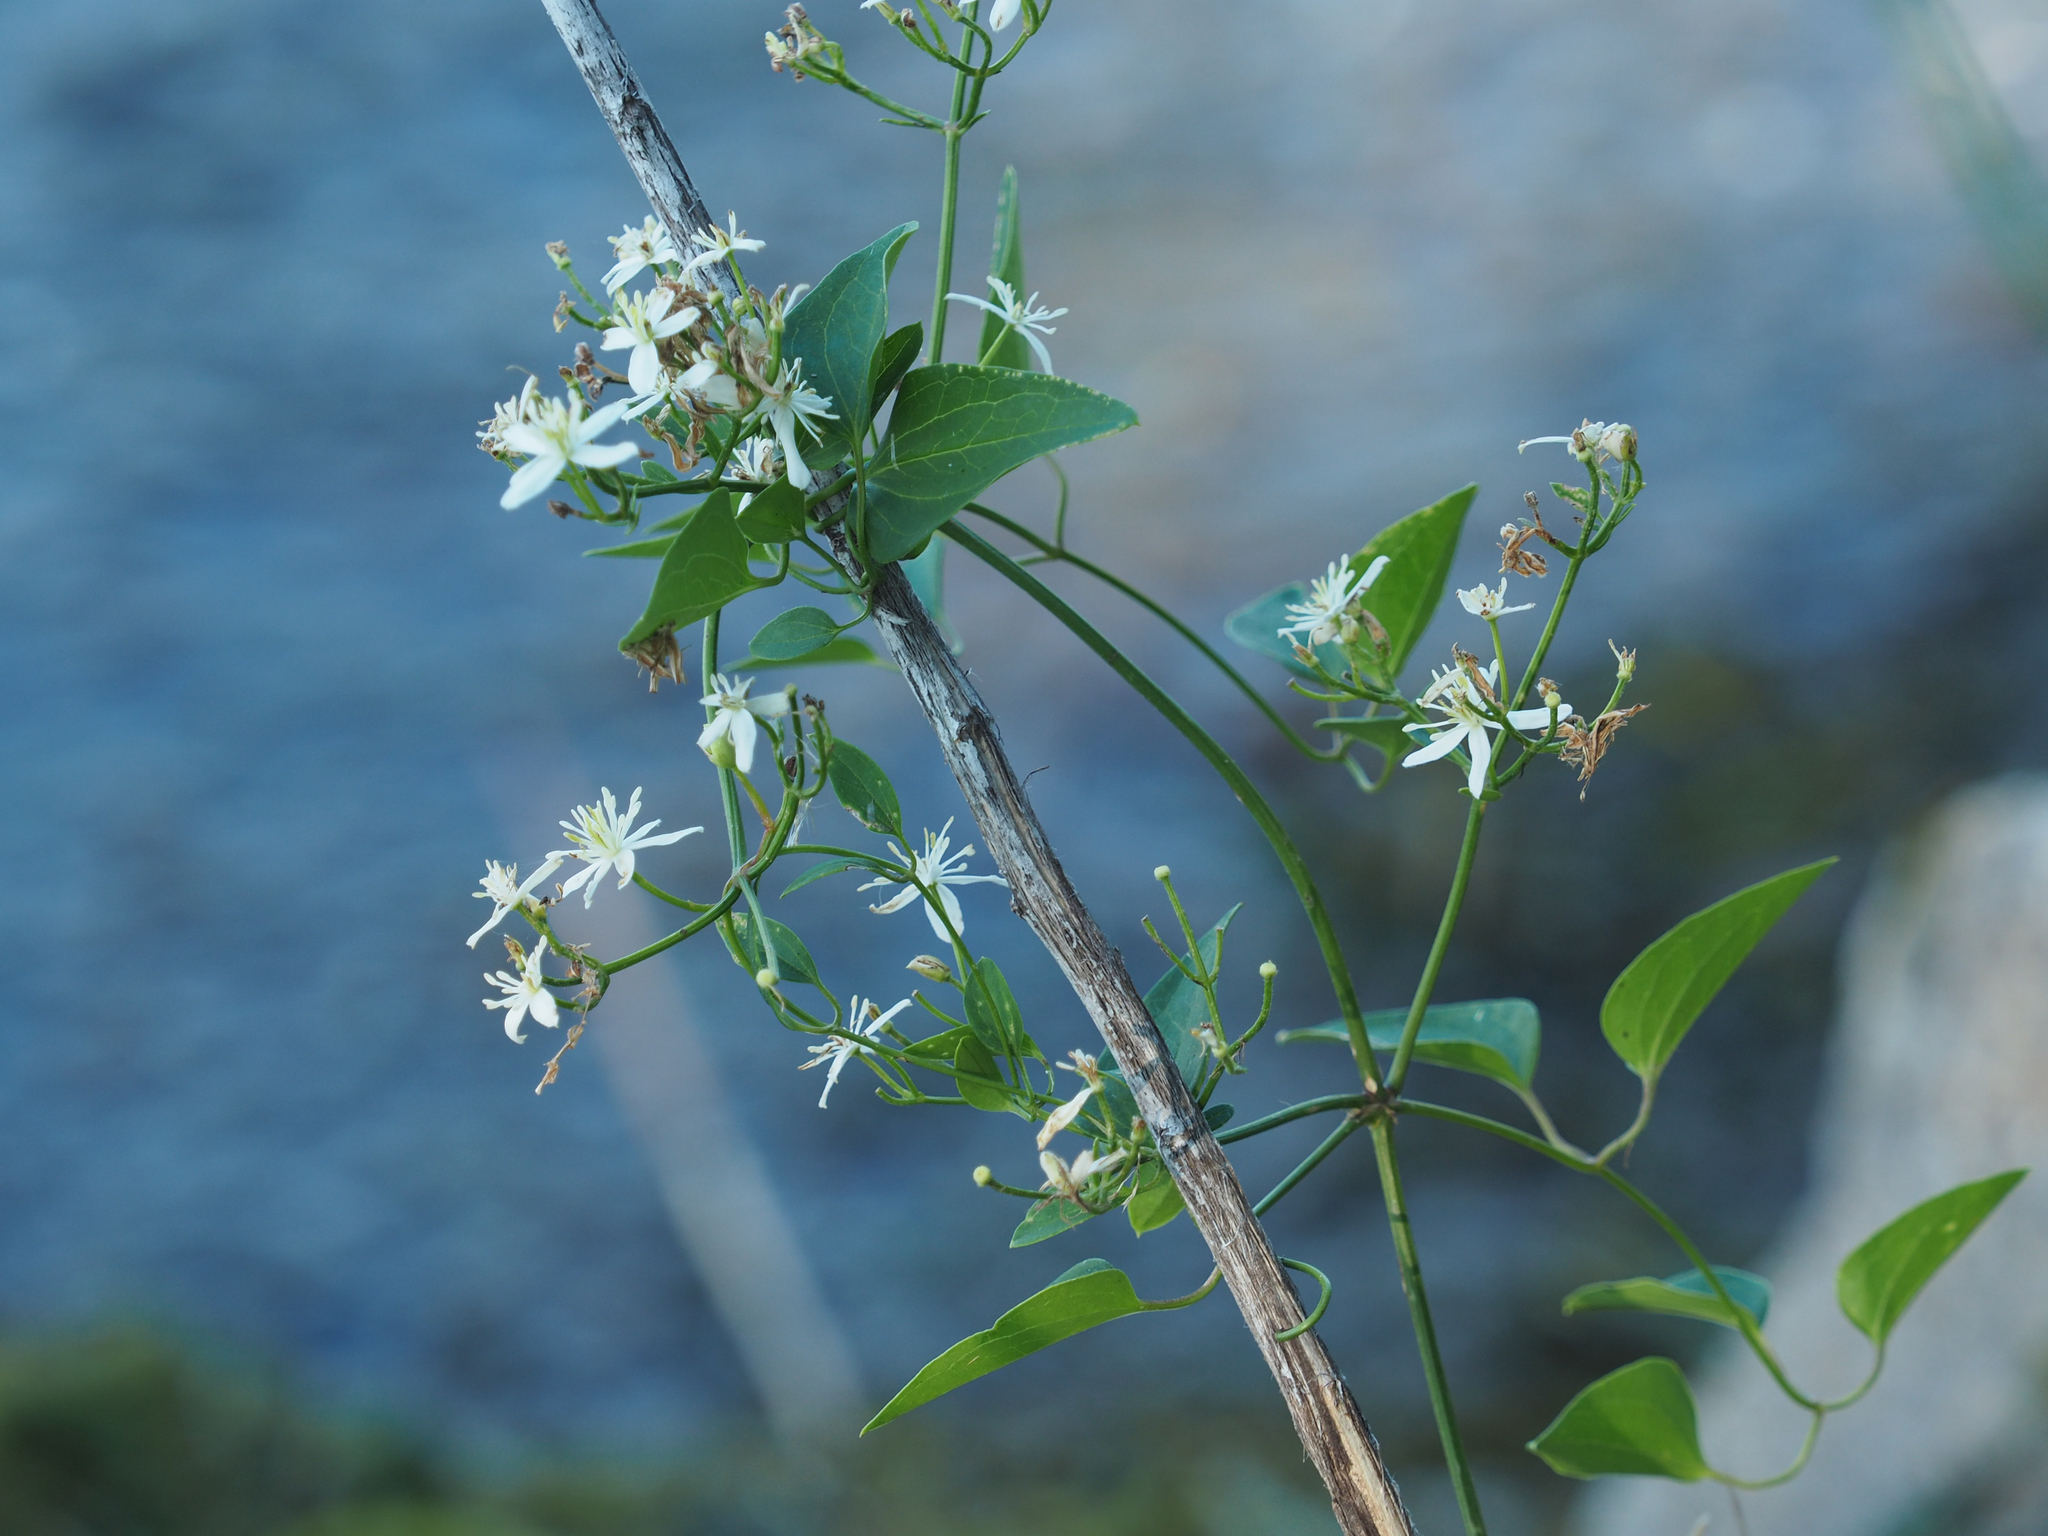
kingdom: Plantae
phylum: Tracheophyta
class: Magnoliopsida
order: Ranunculales
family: Ranunculaceae
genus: Clematis
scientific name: Clematis terniflora
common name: Sweet autumn clematis
